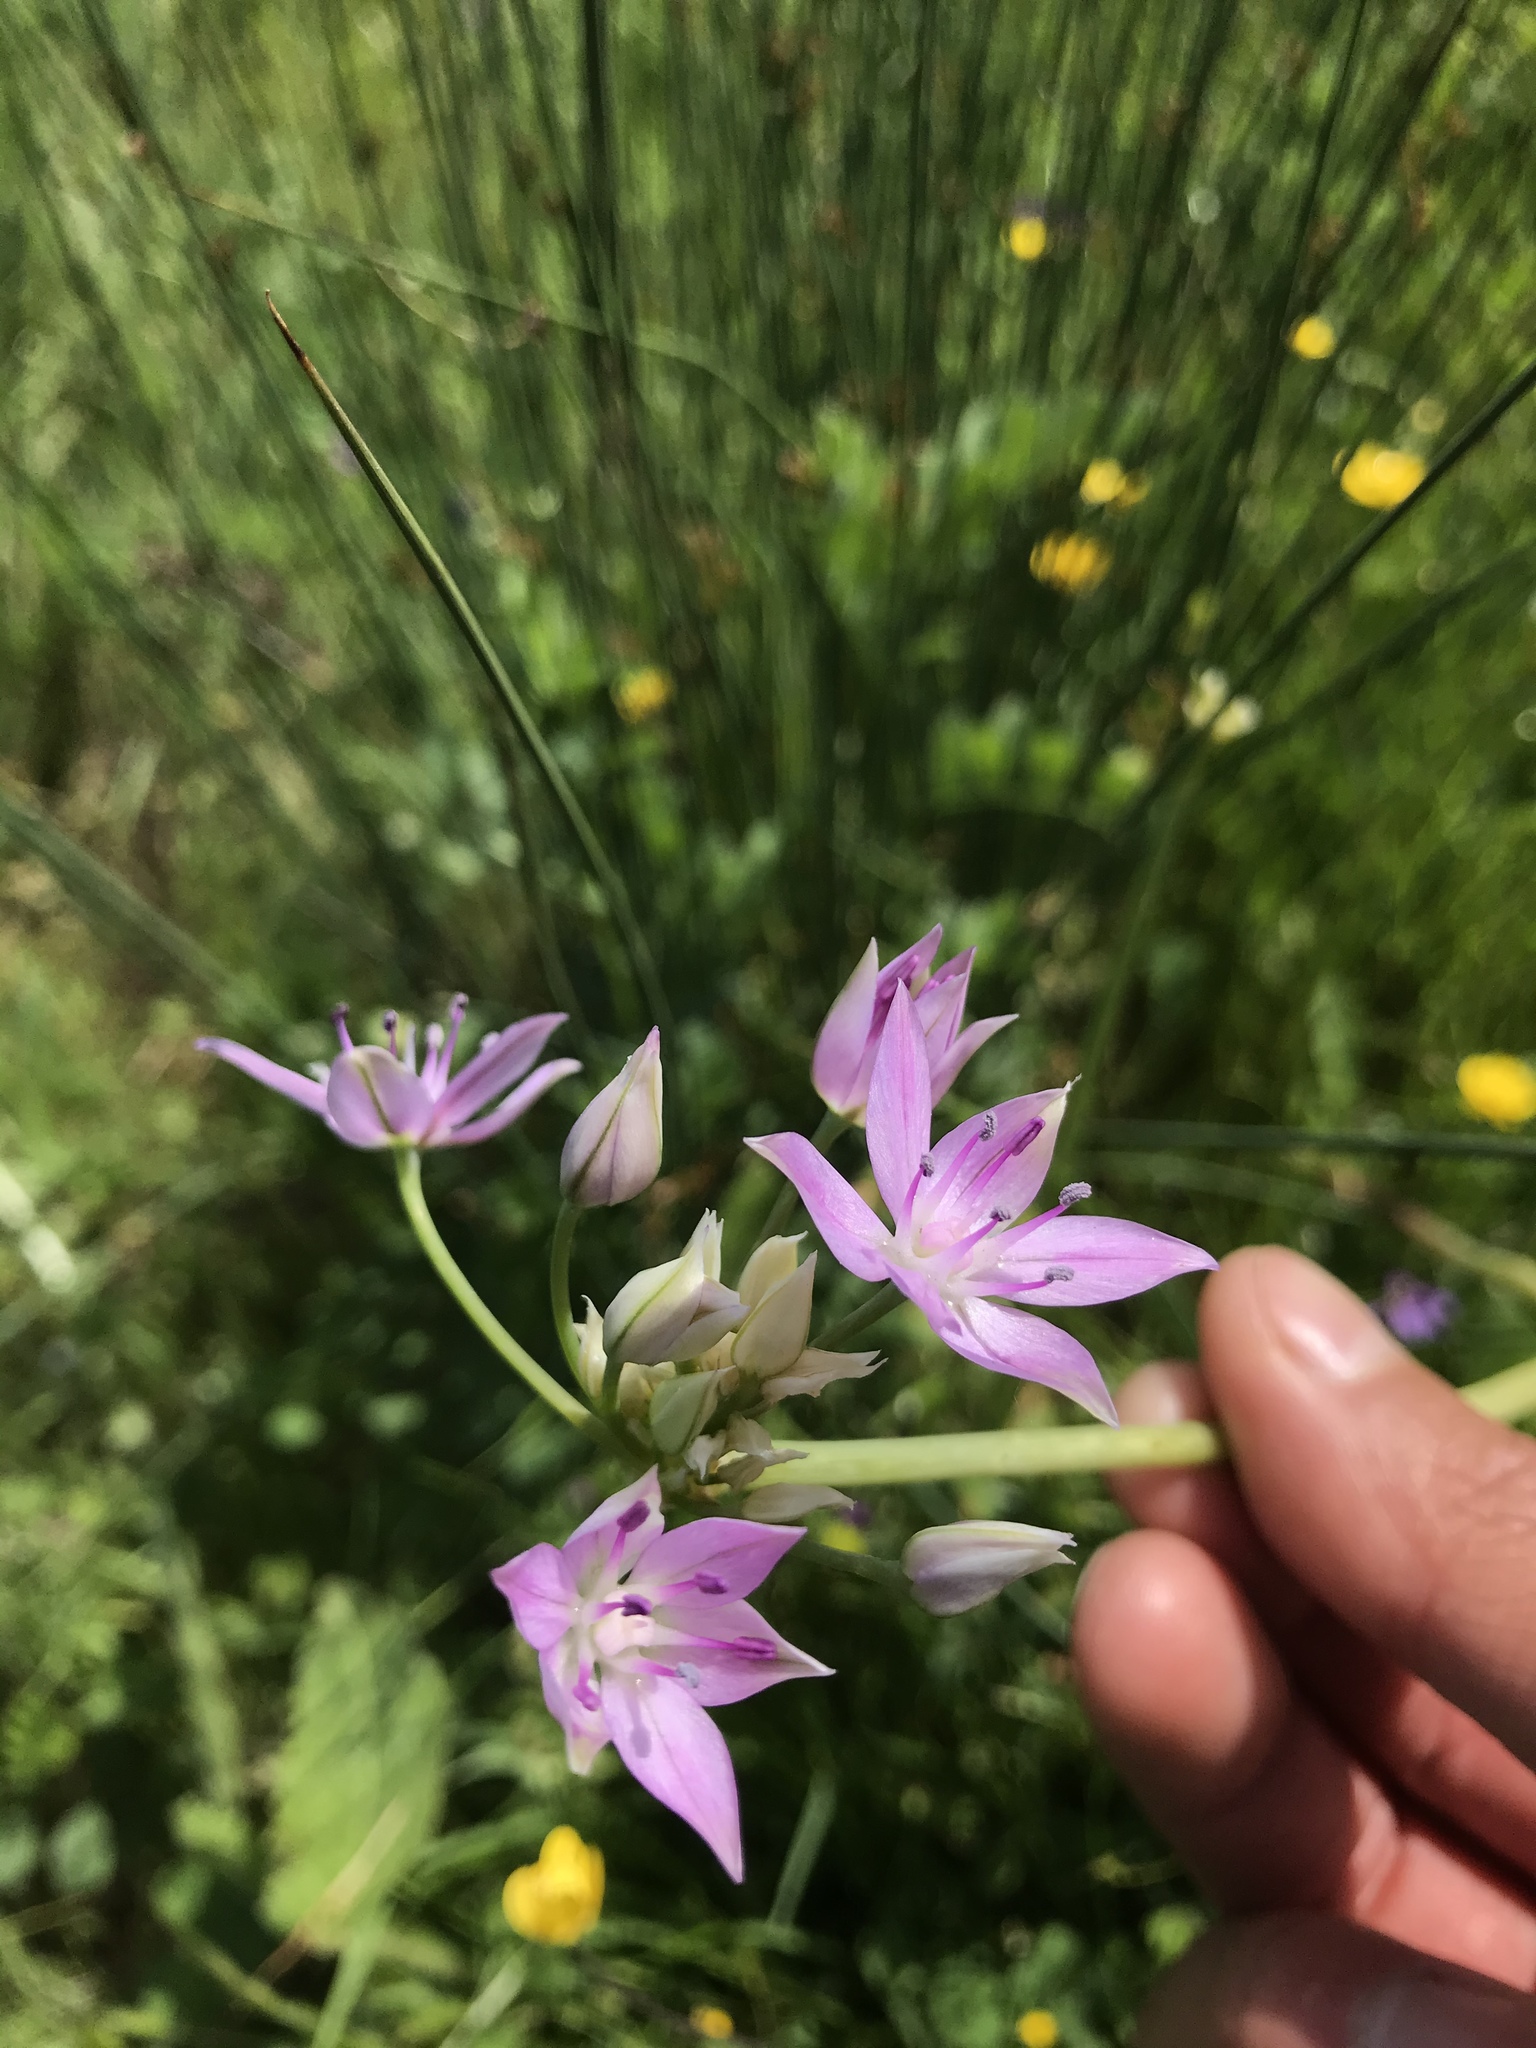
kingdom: Plantae
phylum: Tracheophyta
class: Liliopsida
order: Asparagales
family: Amaryllidaceae
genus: Allium
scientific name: Allium unifolium
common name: American garlic
